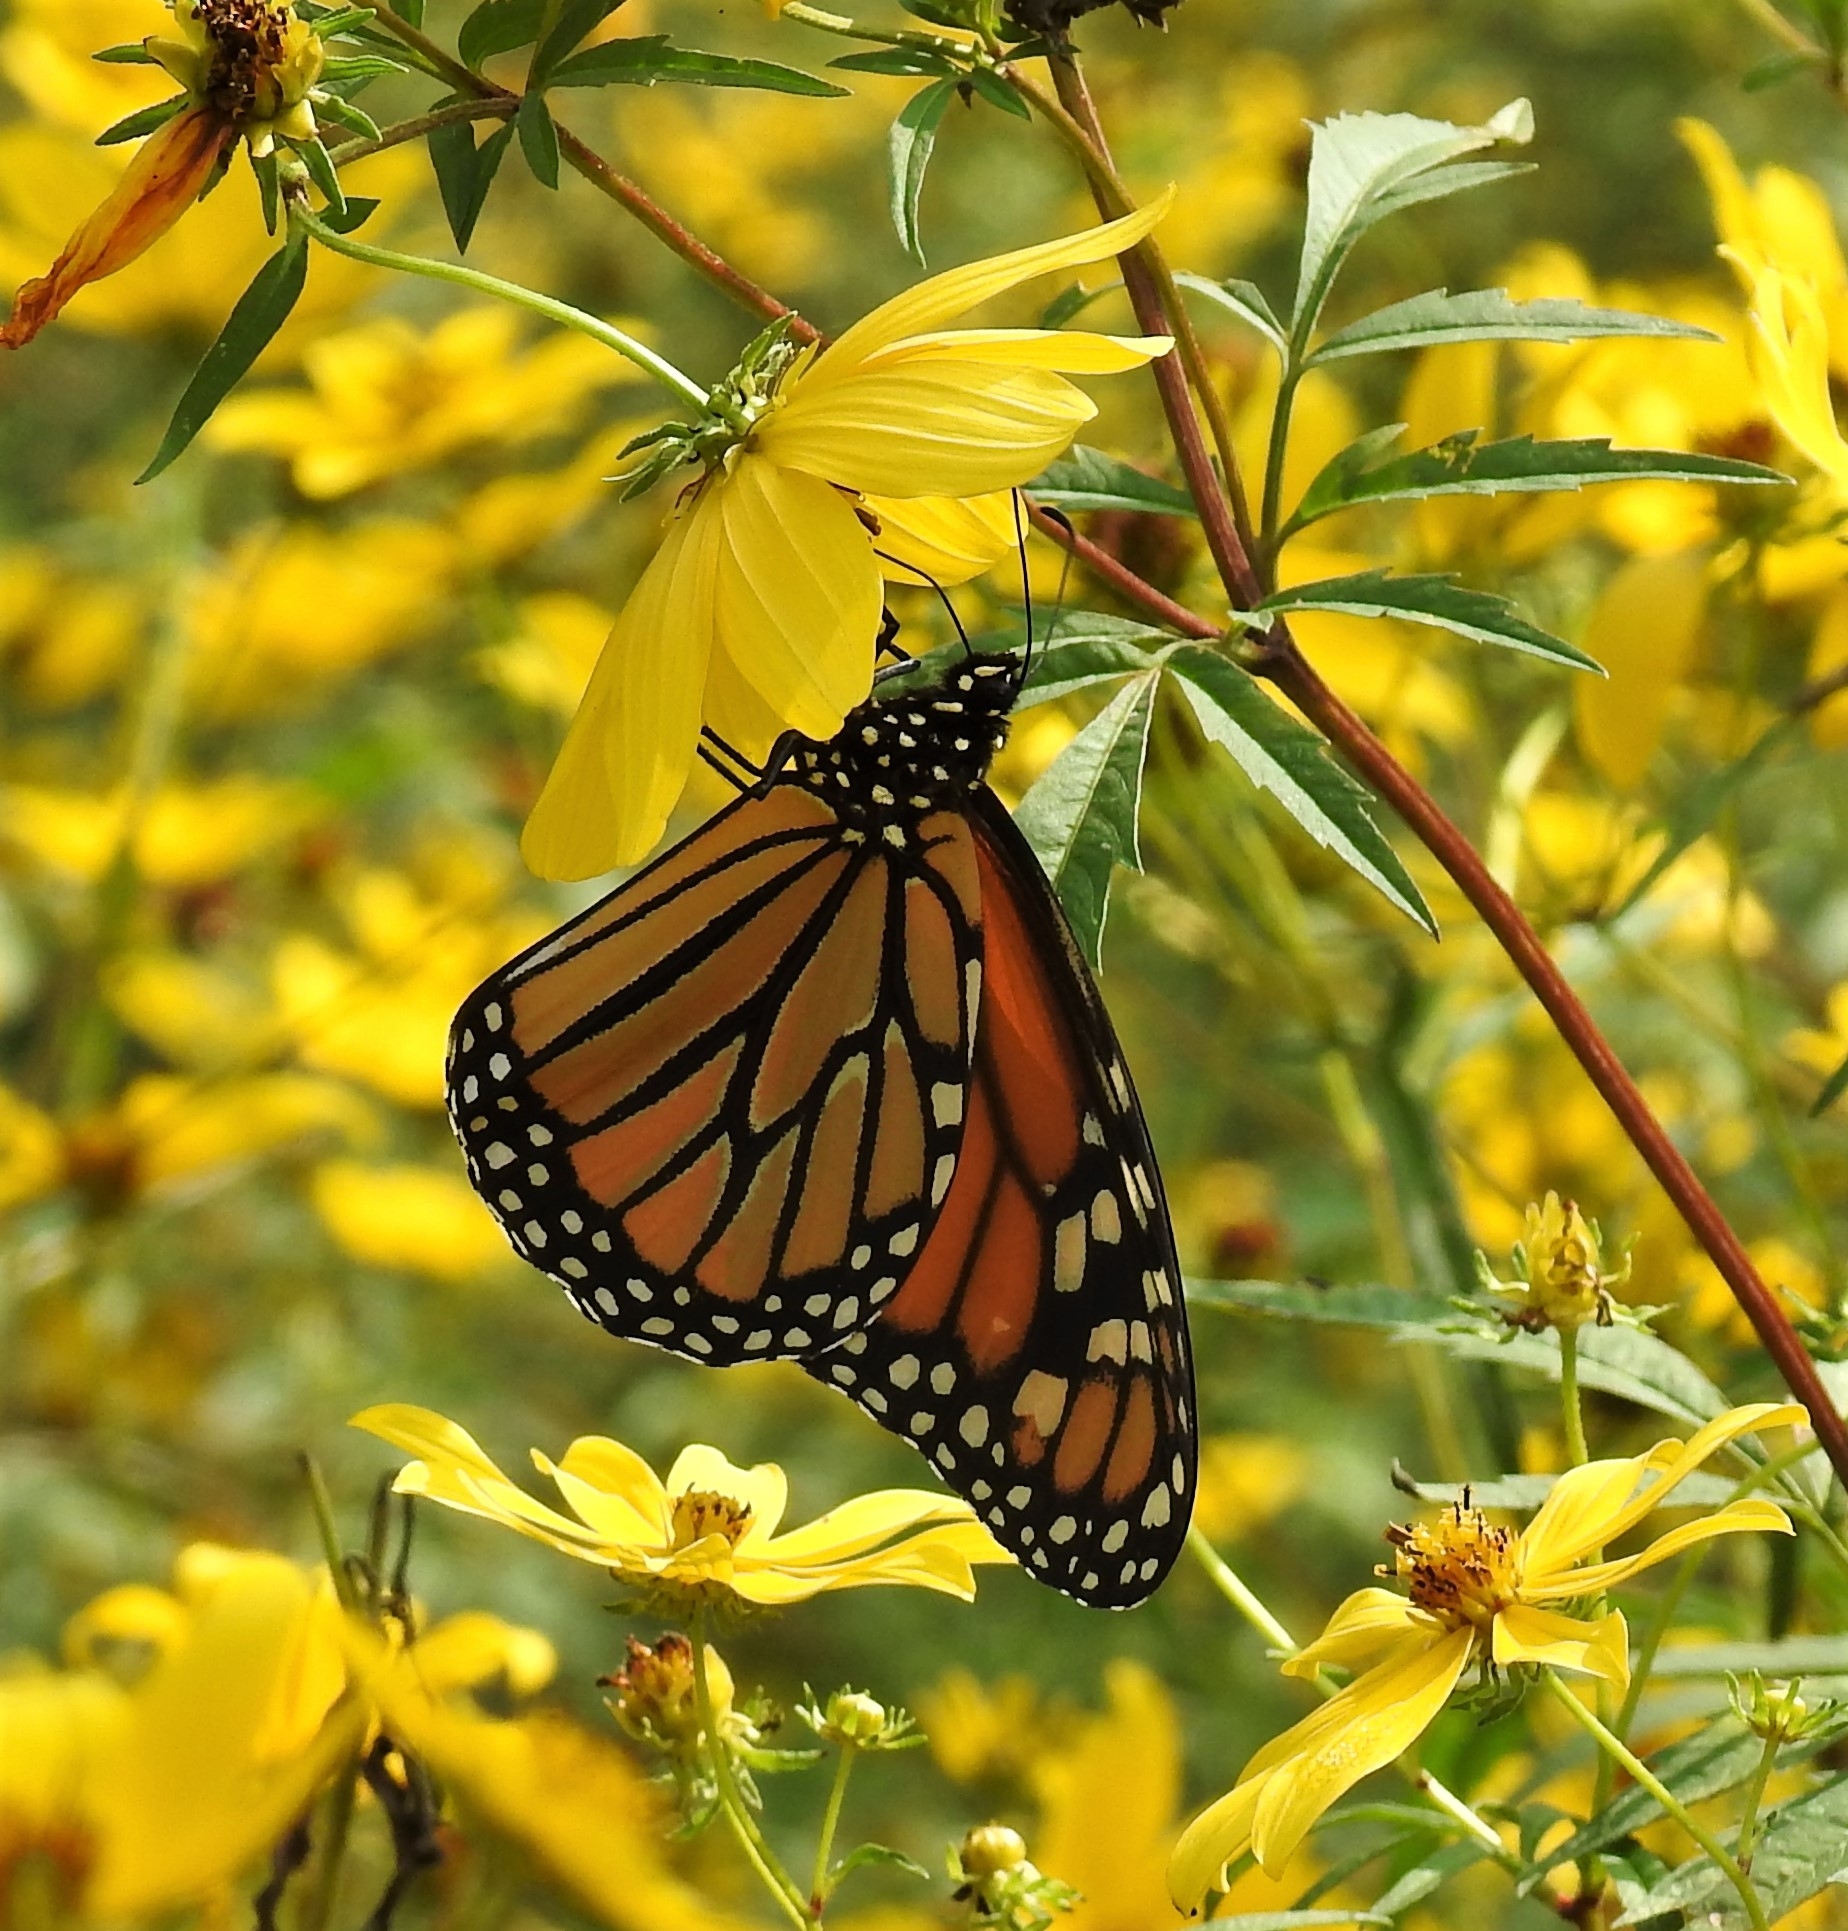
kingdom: Animalia
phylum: Arthropoda
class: Insecta
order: Lepidoptera
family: Nymphalidae
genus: Danaus
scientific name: Danaus plexippus
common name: Monarch
